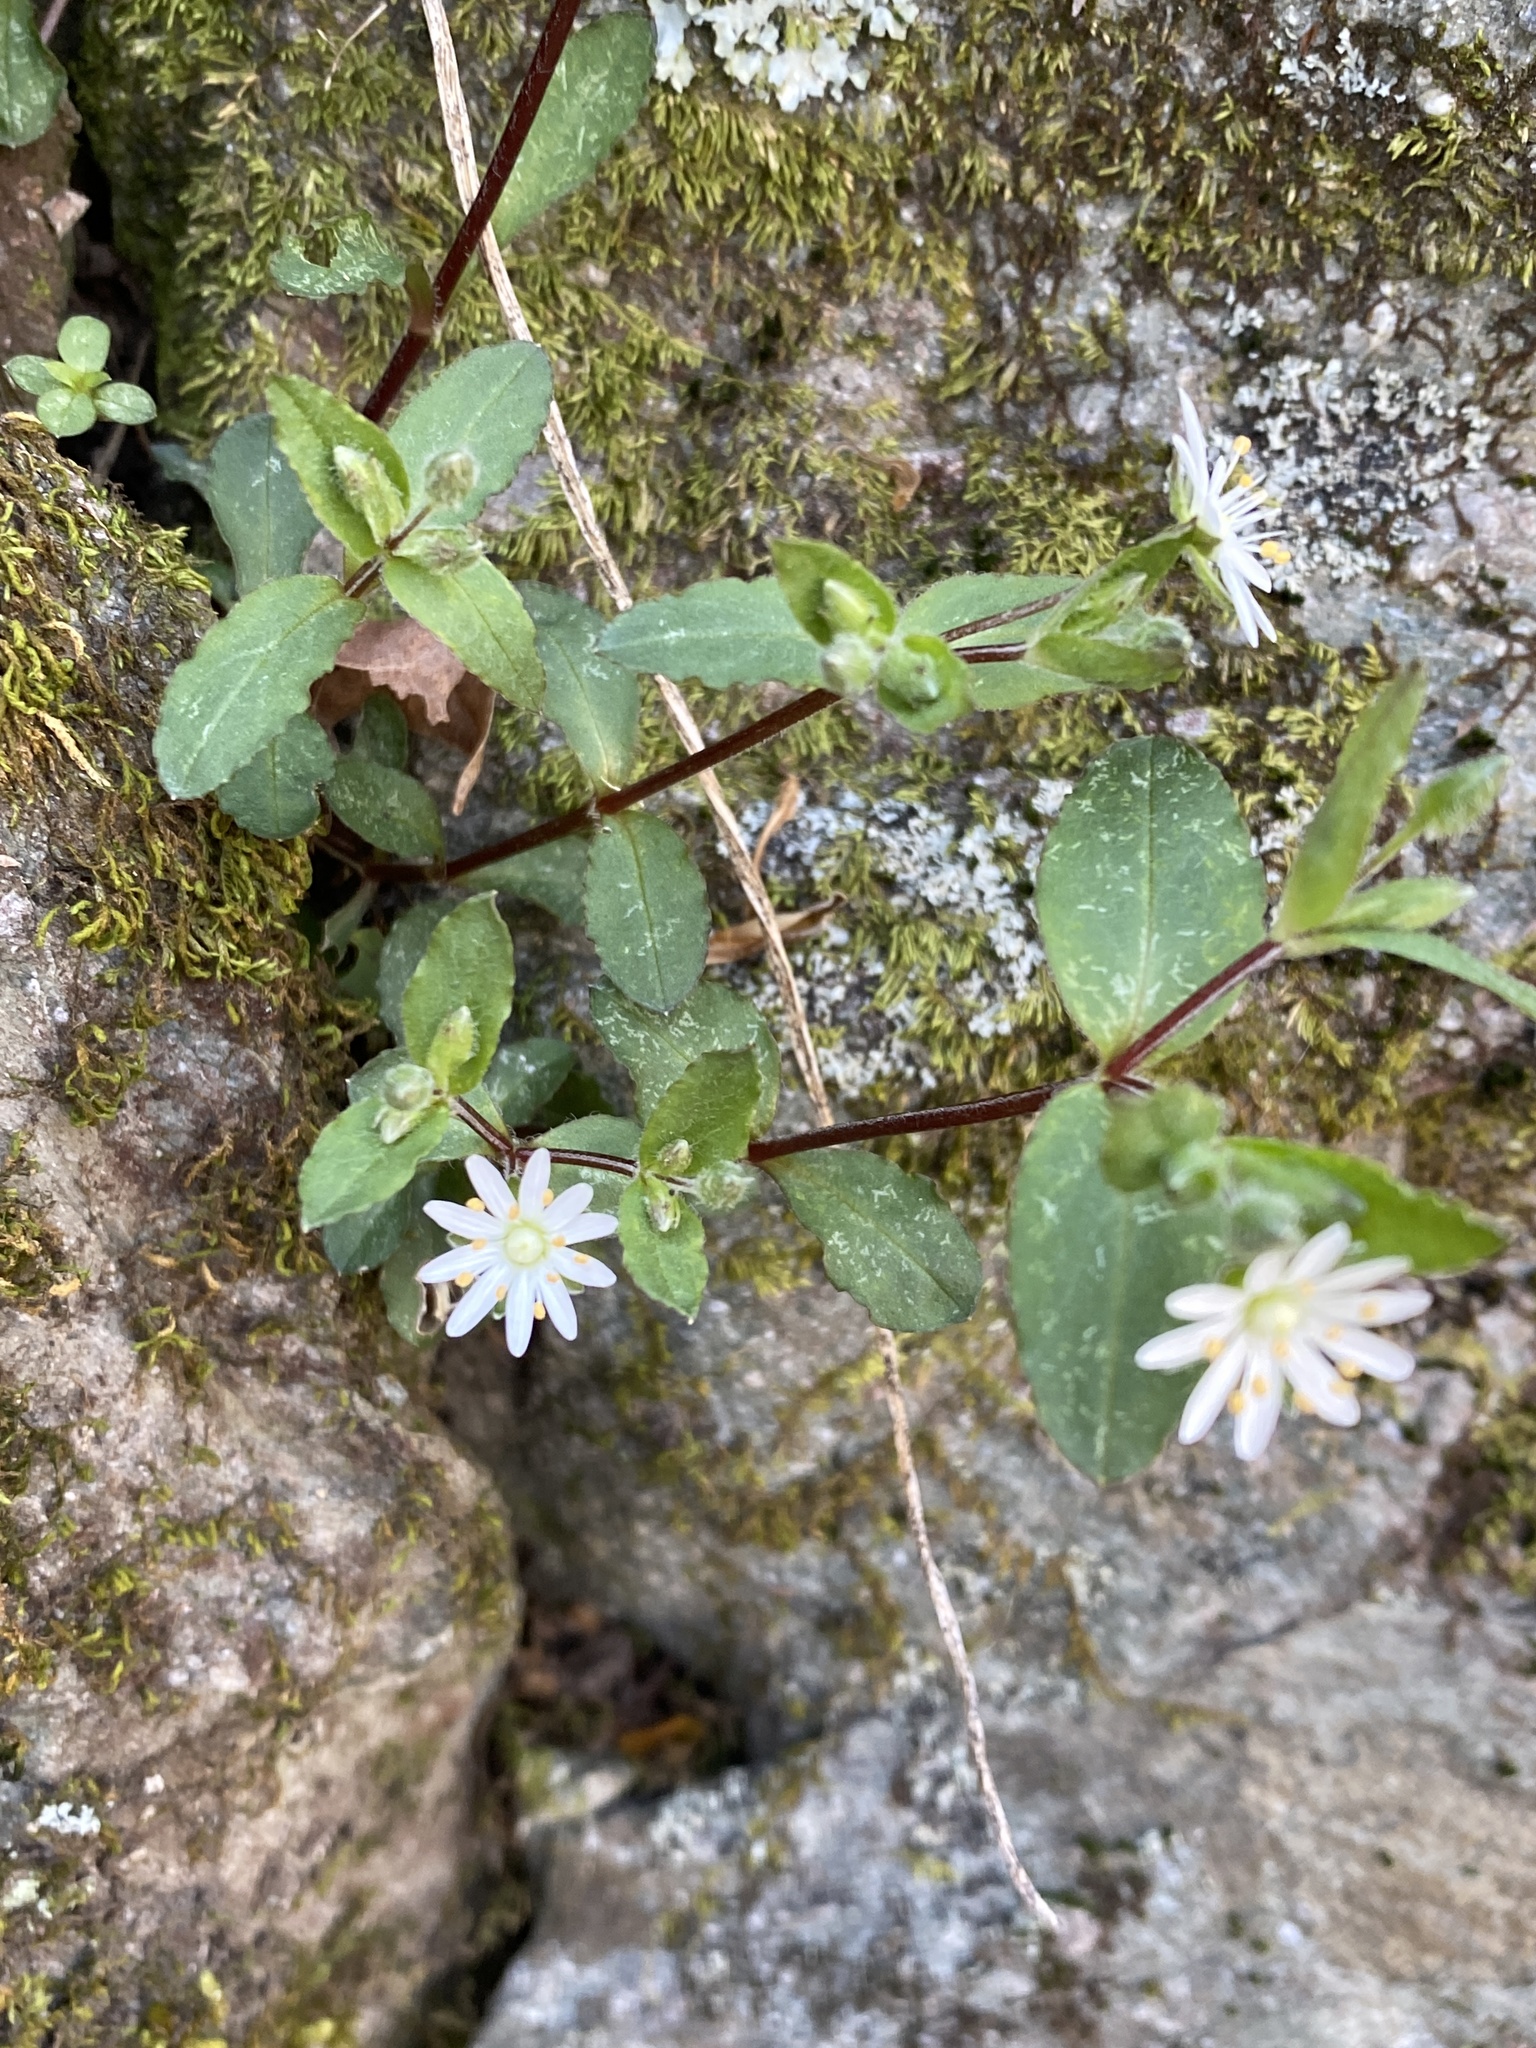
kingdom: Plantae
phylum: Tracheophyta
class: Magnoliopsida
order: Caryophyllales
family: Caryophyllaceae
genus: Stellaria
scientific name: Stellaria pubera
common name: Star chickweed
